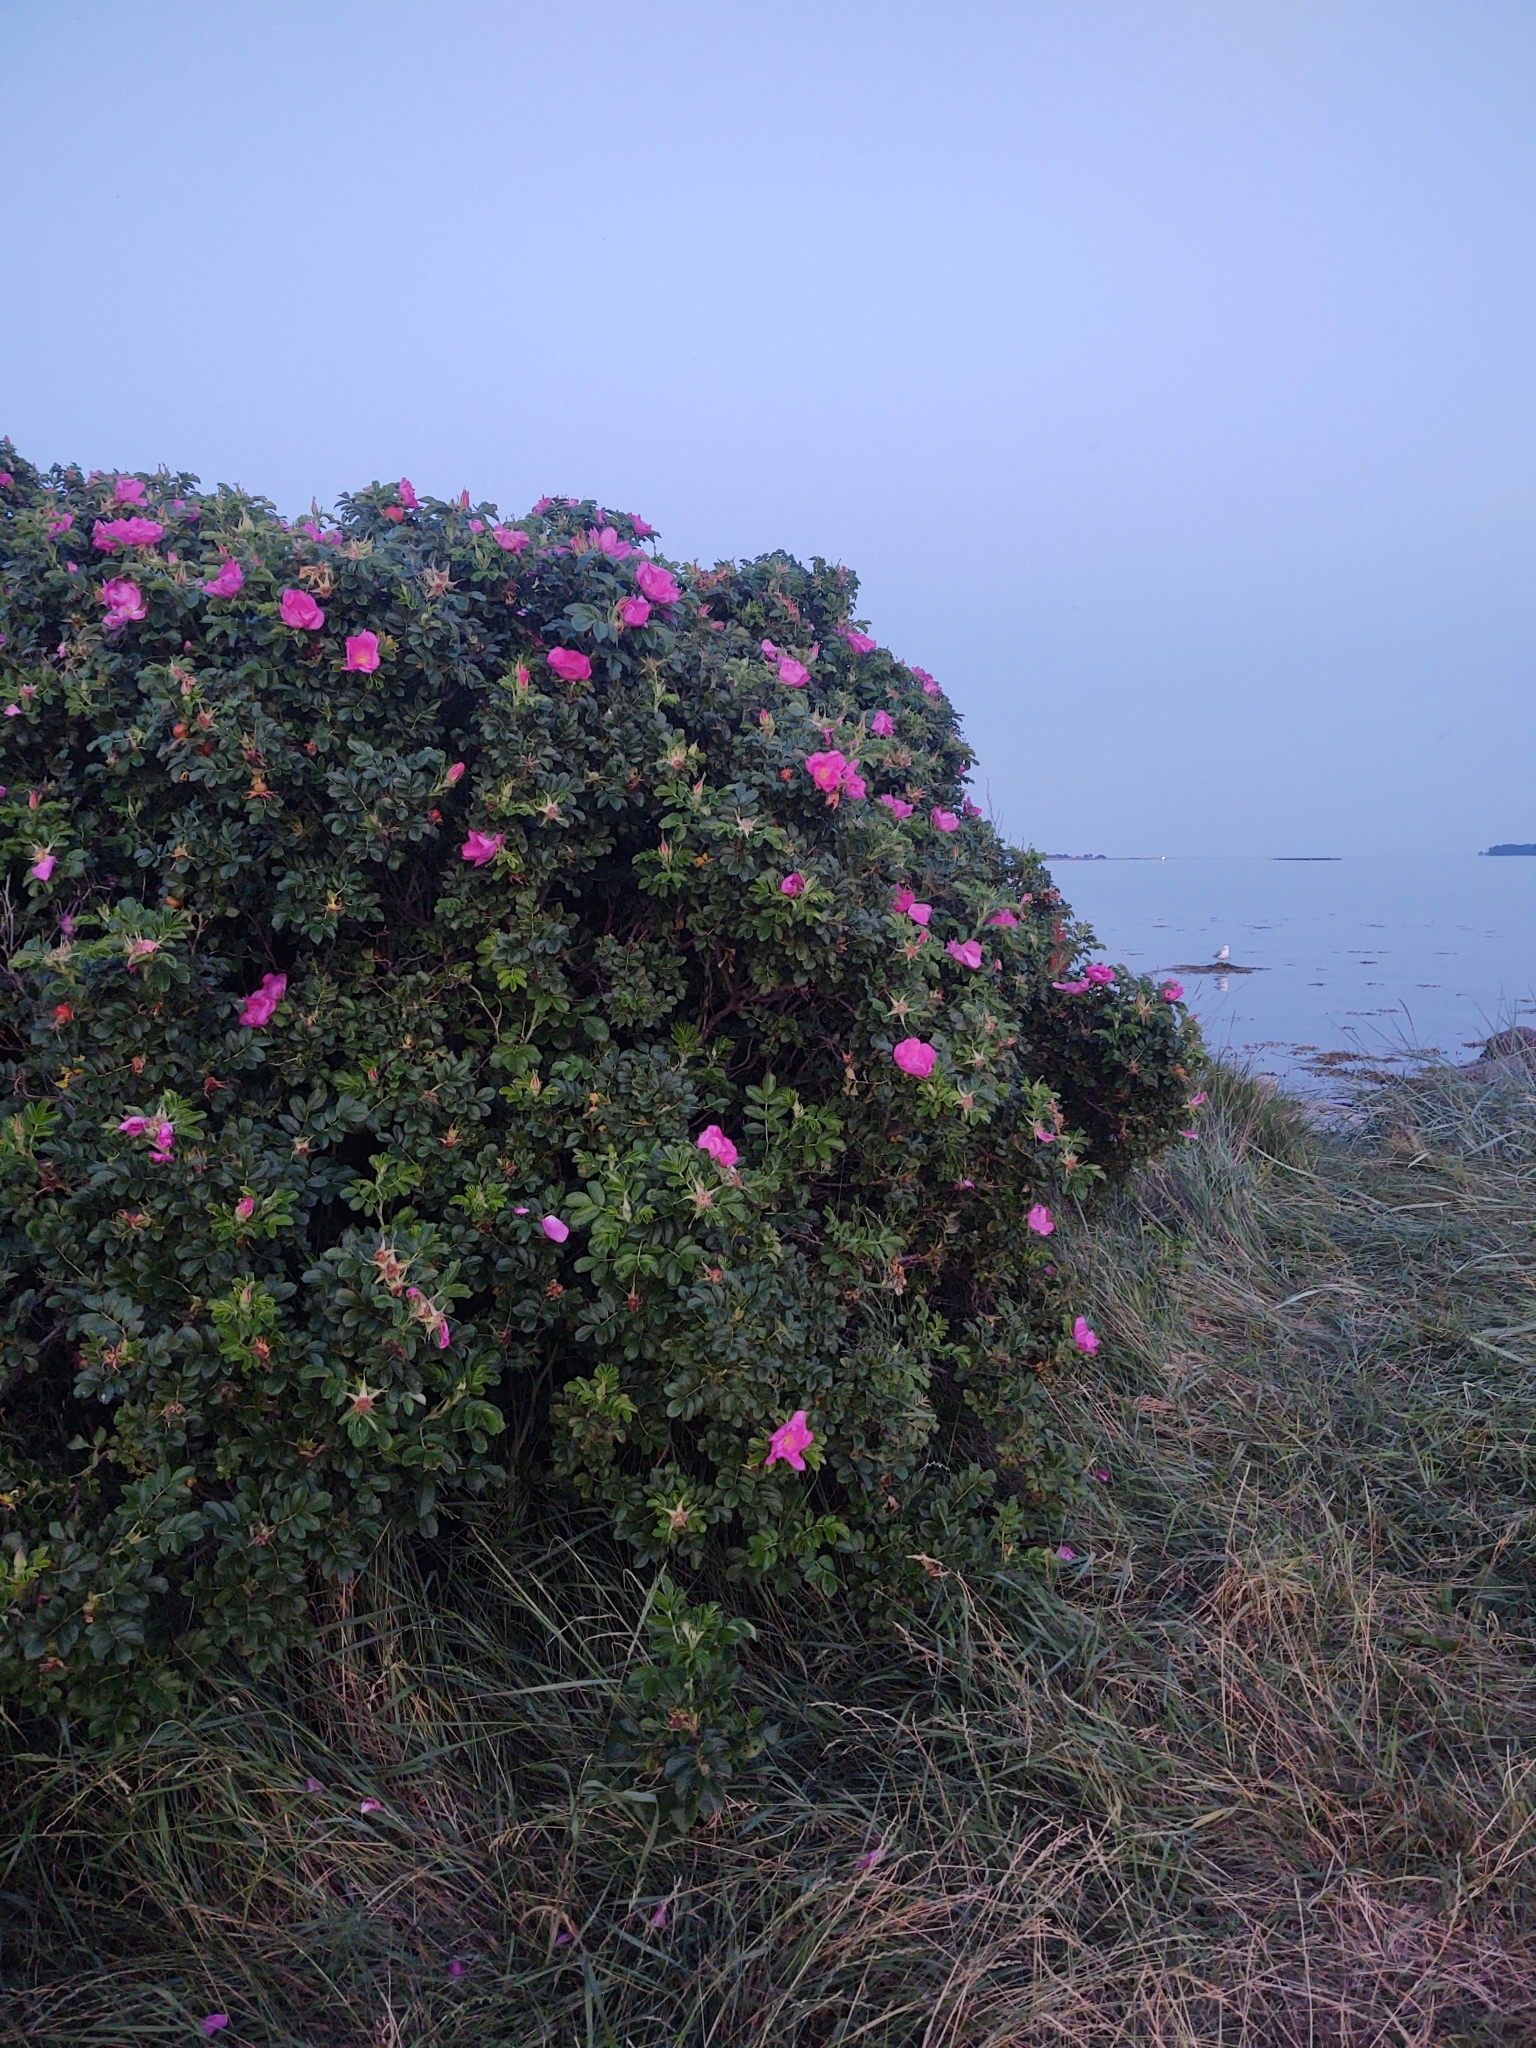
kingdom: Plantae
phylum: Tracheophyta
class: Magnoliopsida
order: Rosales
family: Rosaceae
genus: Rosa
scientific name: Rosa rugosa
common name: Japanese rose
